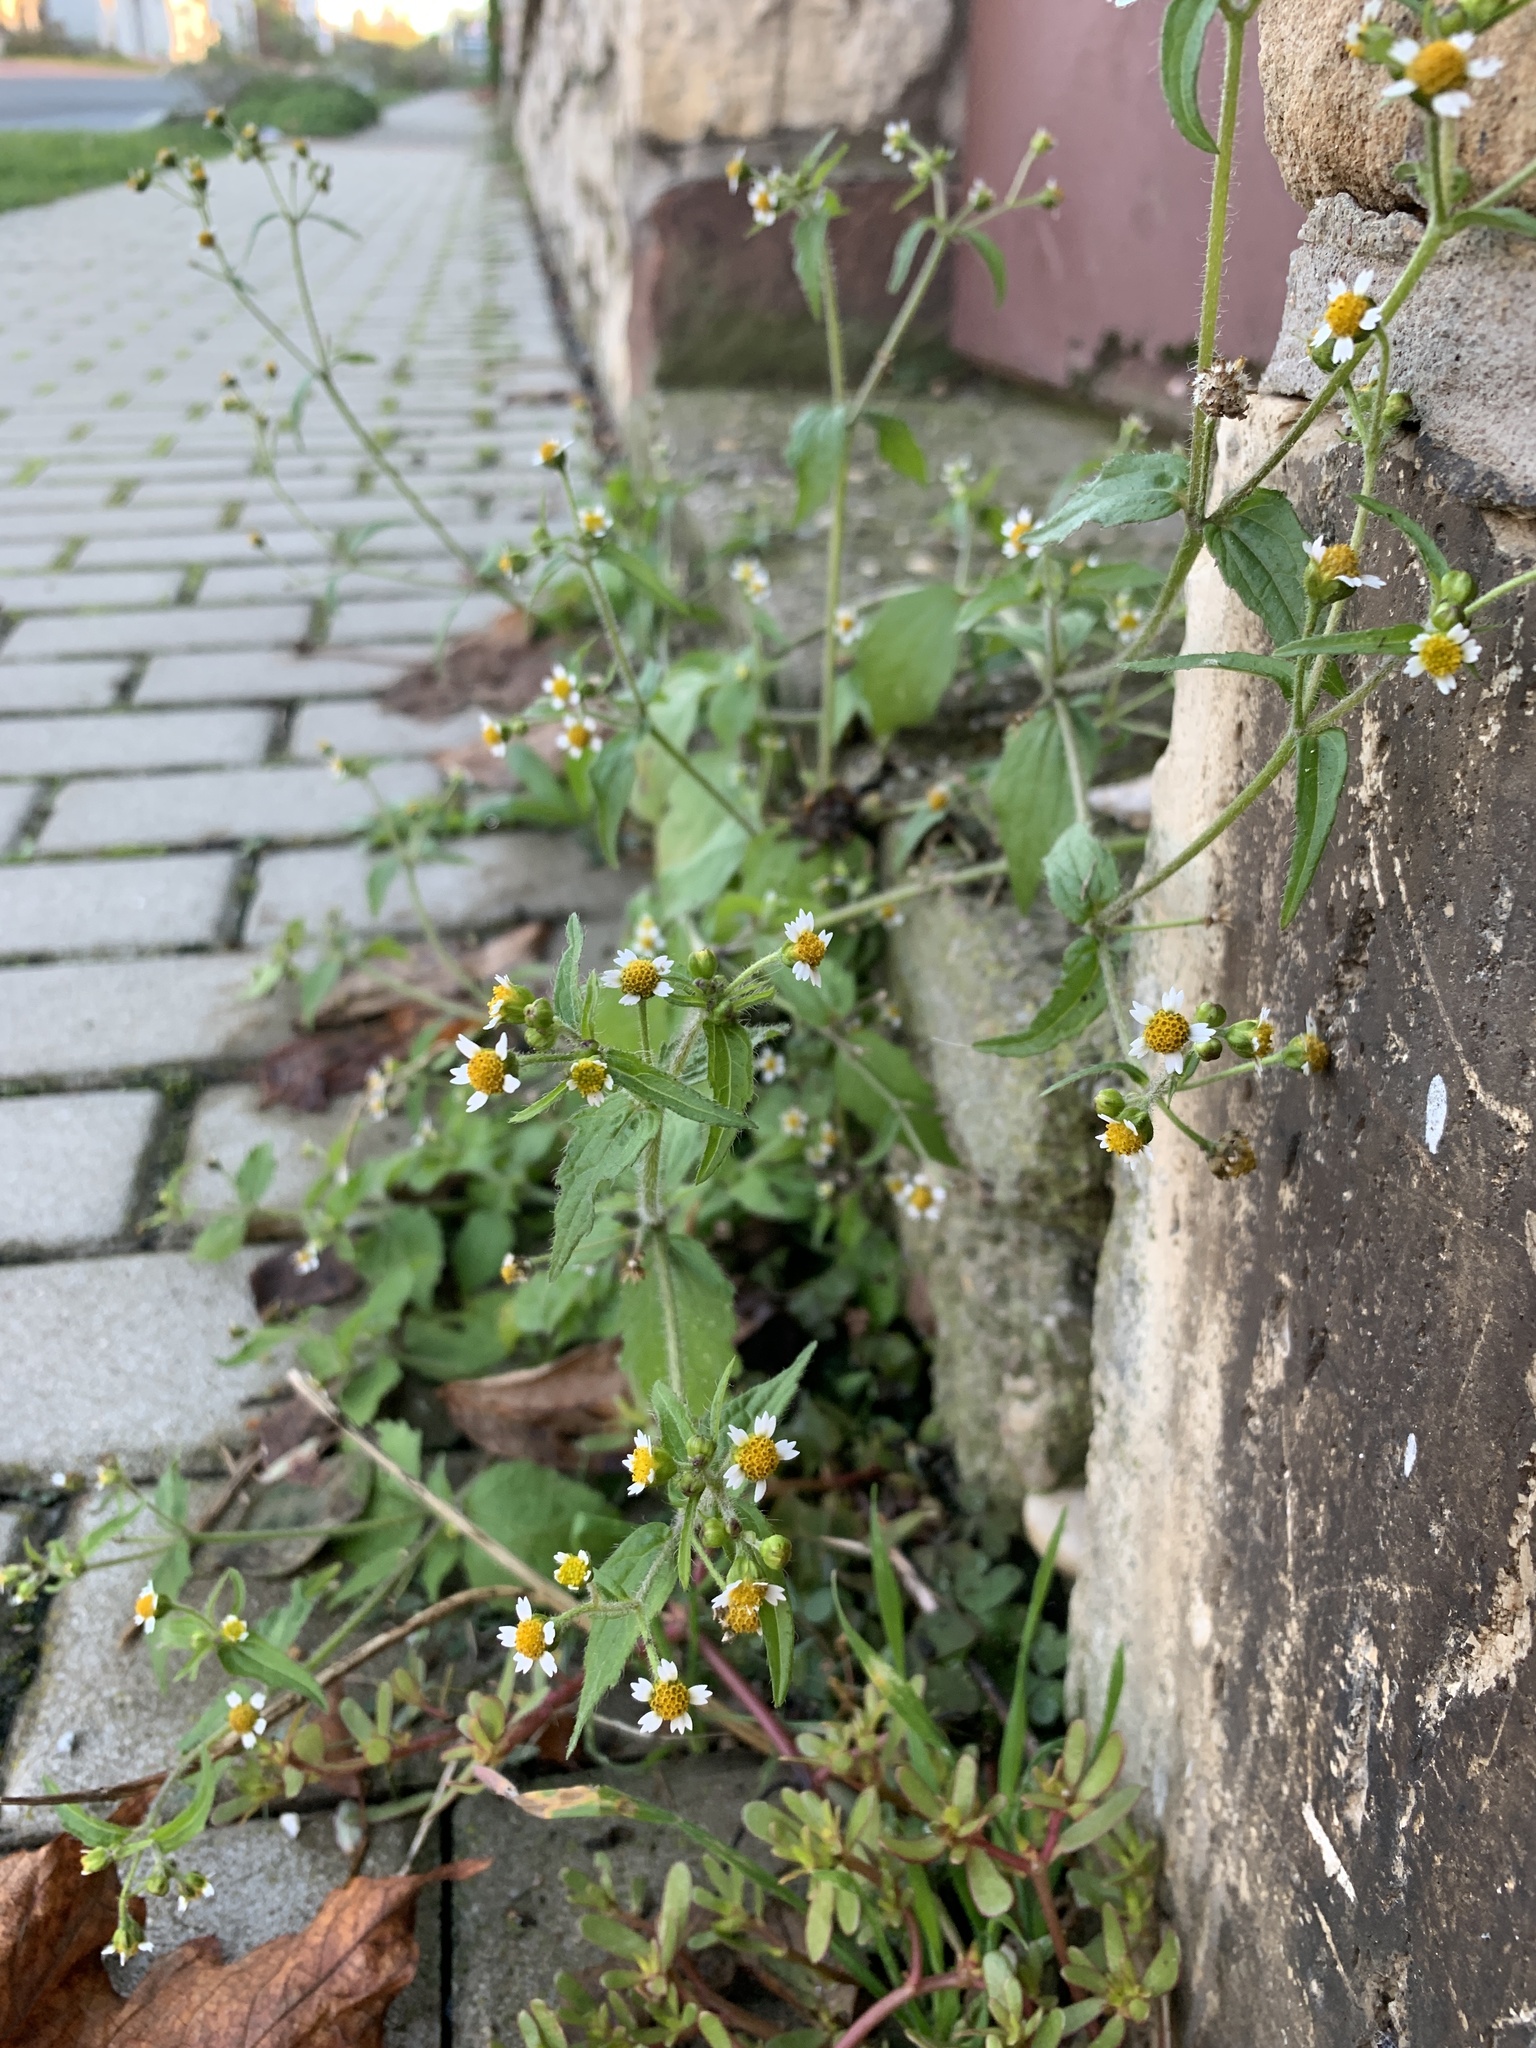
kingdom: Plantae
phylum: Tracheophyta
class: Magnoliopsida
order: Asterales
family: Asteraceae
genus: Galinsoga
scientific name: Galinsoga quadriradiata
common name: Shaggy soldier
